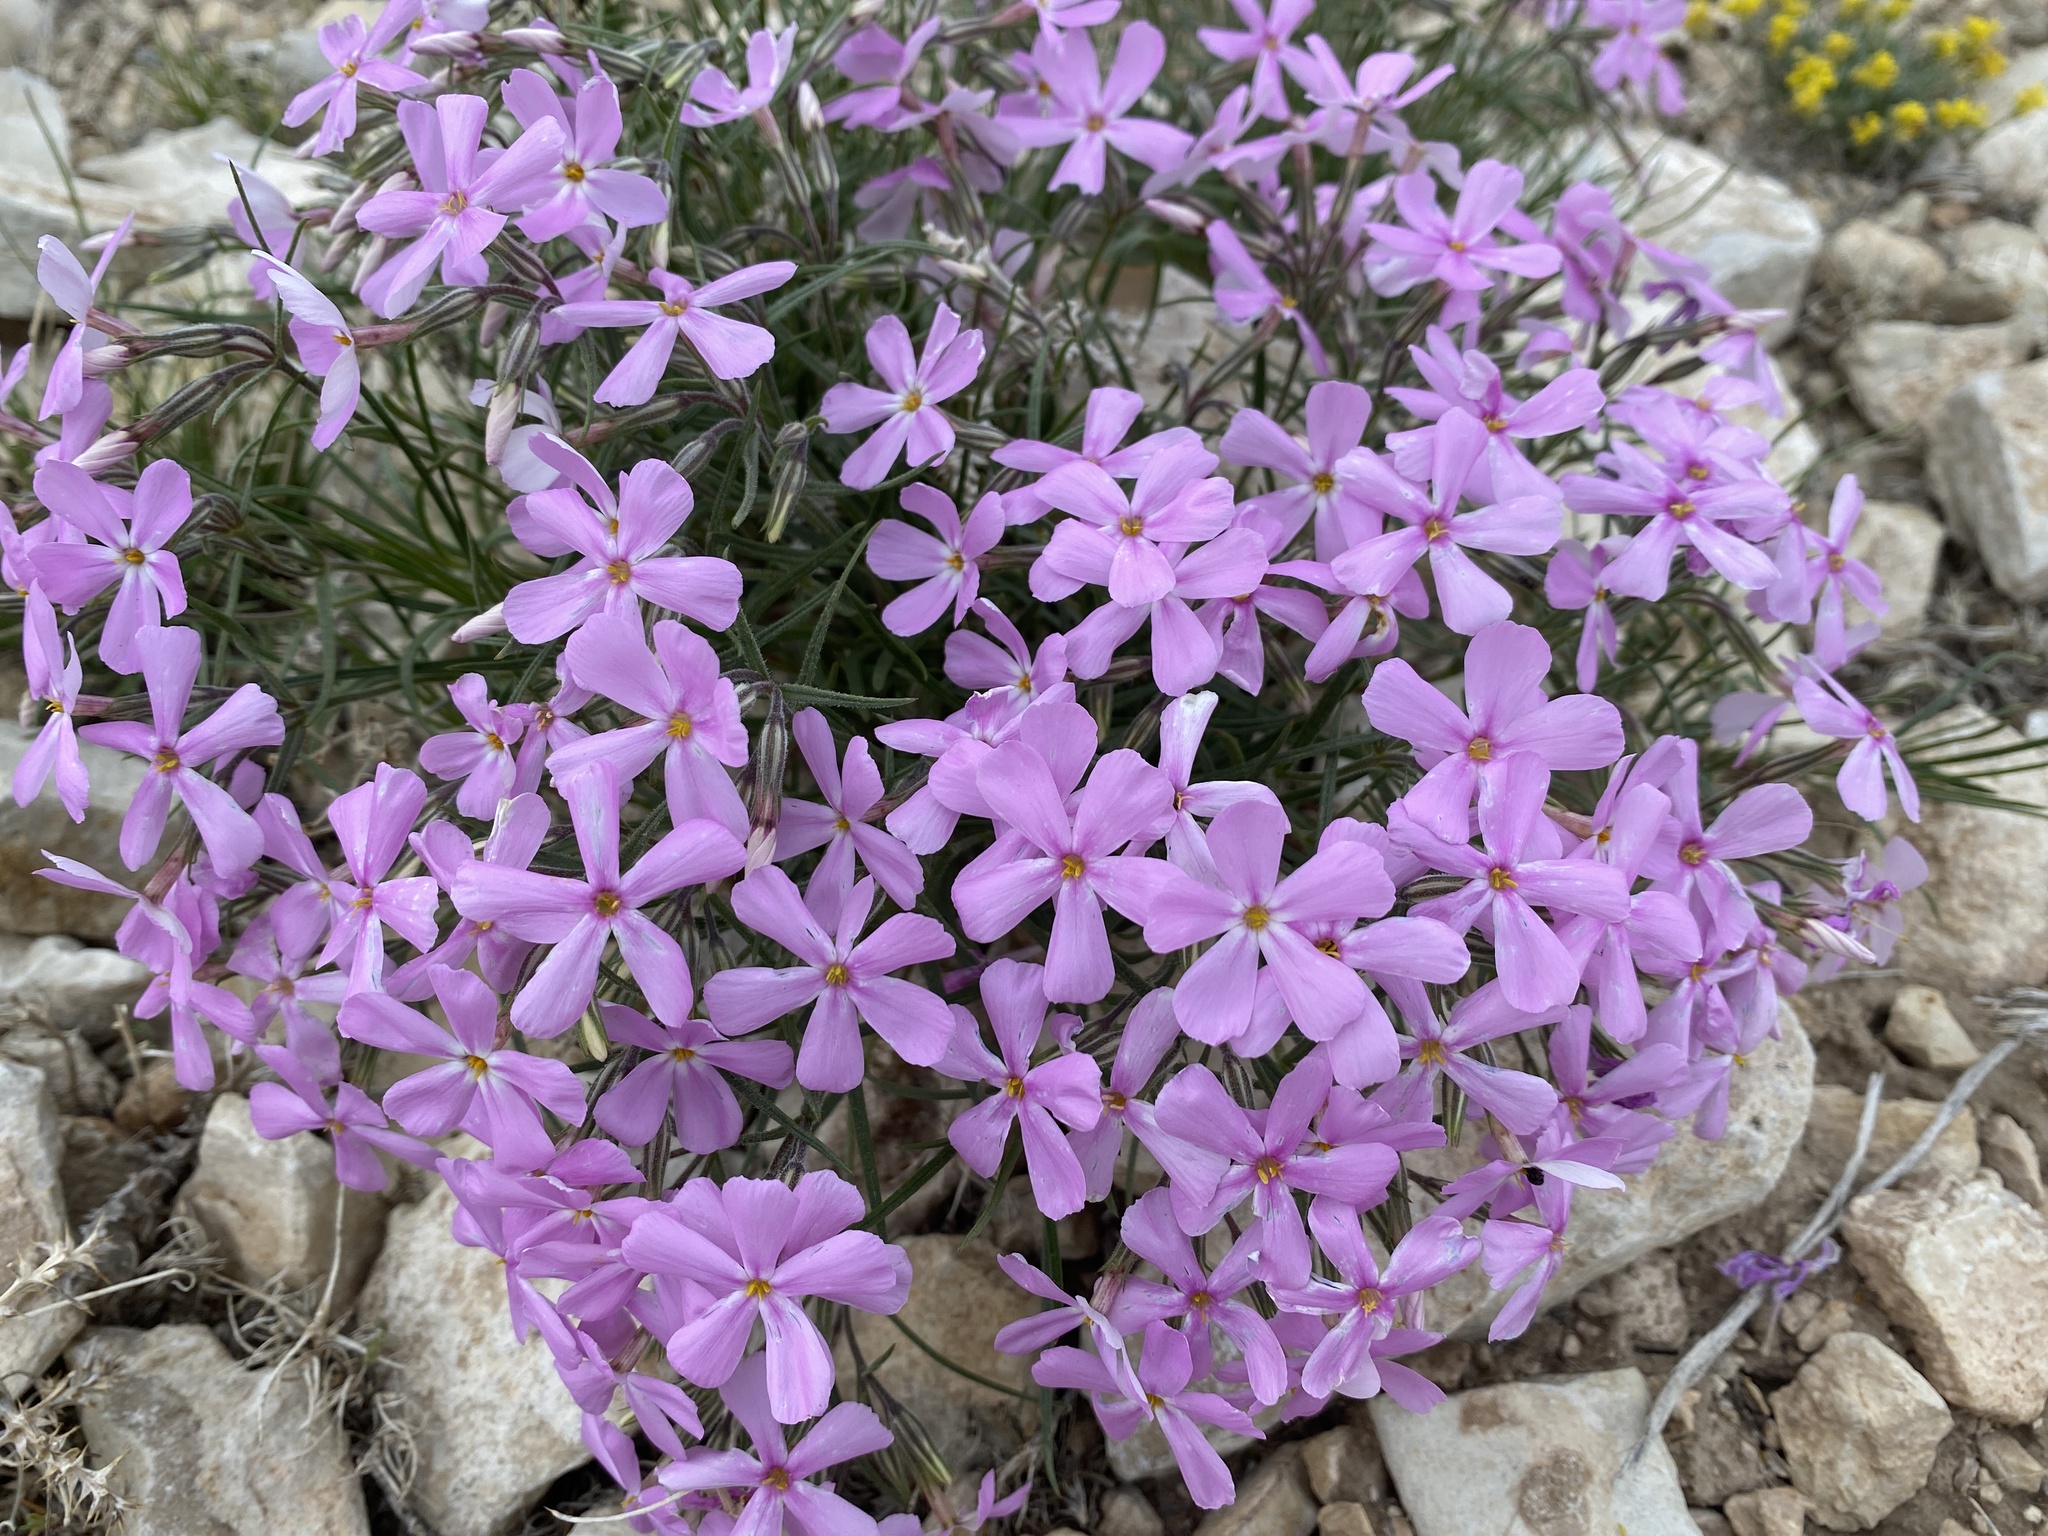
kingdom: Plantae
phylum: Tracheophyta
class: Magnoliopsida
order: Ericales
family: Polemoniaceae
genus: Phlox
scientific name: Phlox longifolia
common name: Longleaf phlox
